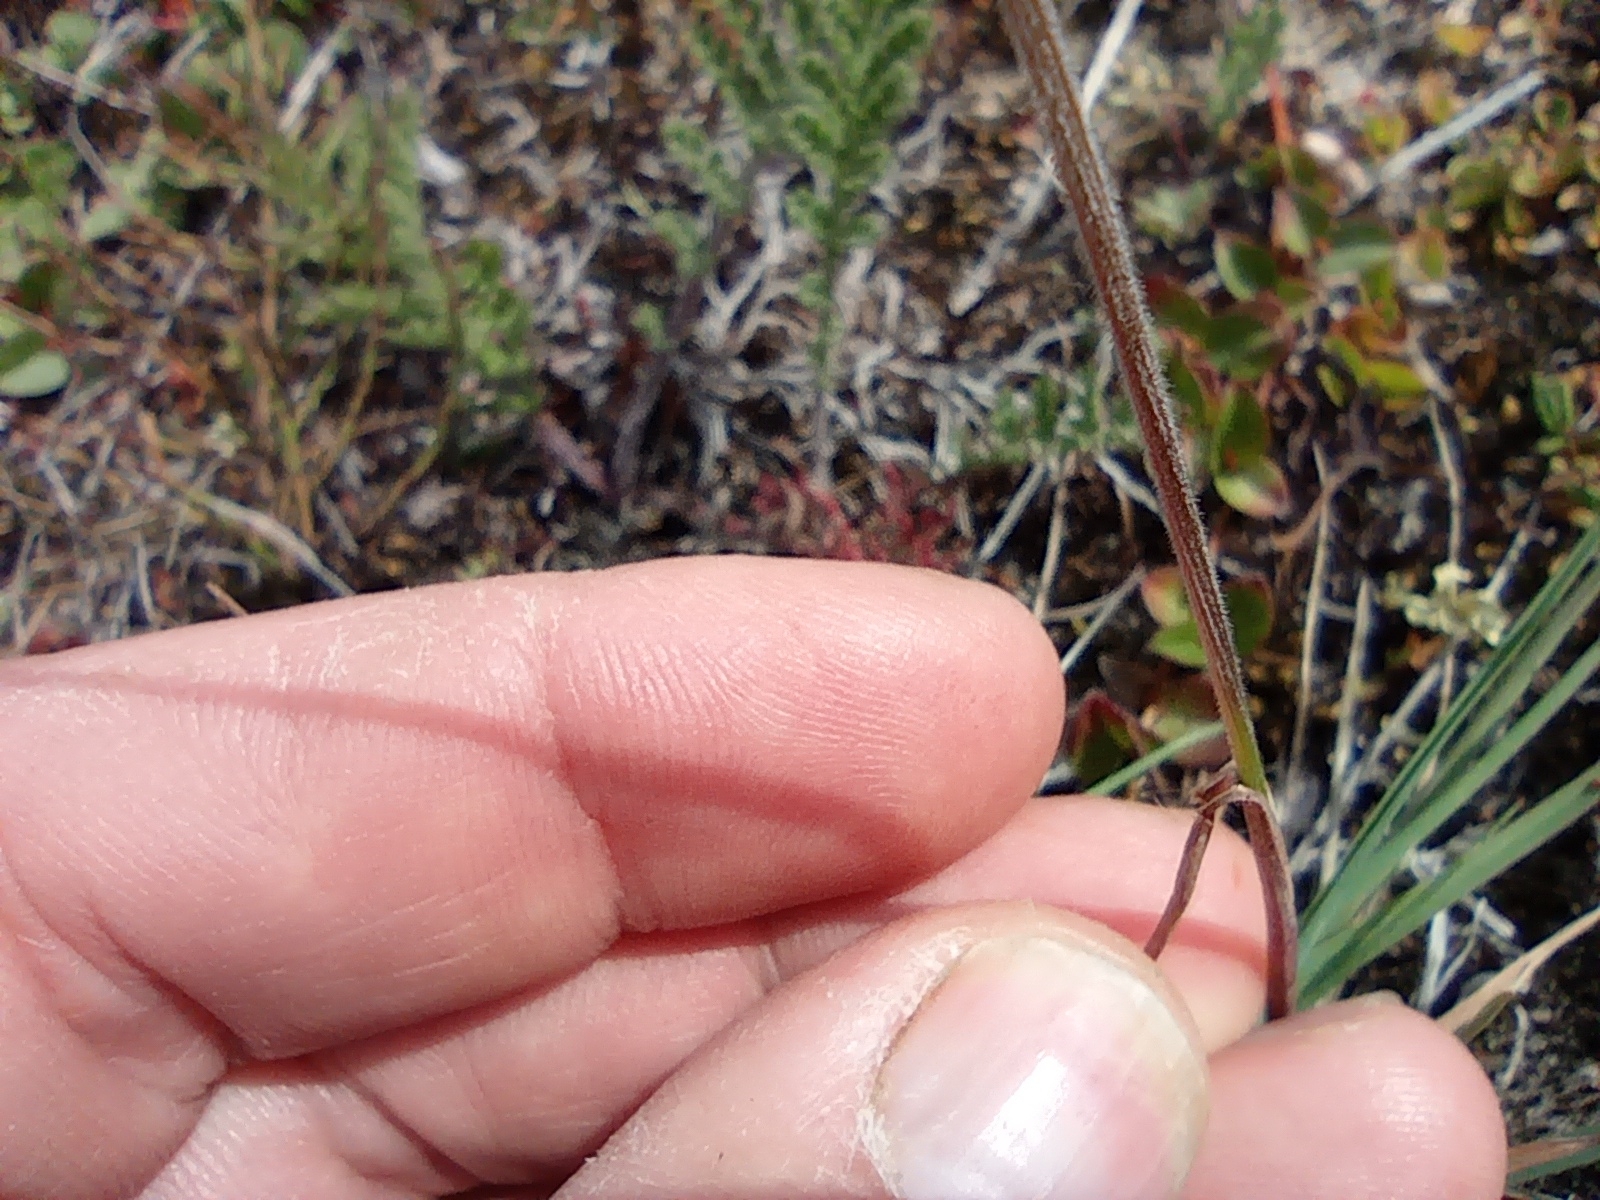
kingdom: Plantae
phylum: Tracheophyta
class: Liliopsida
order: Poales
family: Poaceae
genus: Koeleria
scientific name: Koeleria asiatica
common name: Eurasian junegrass
